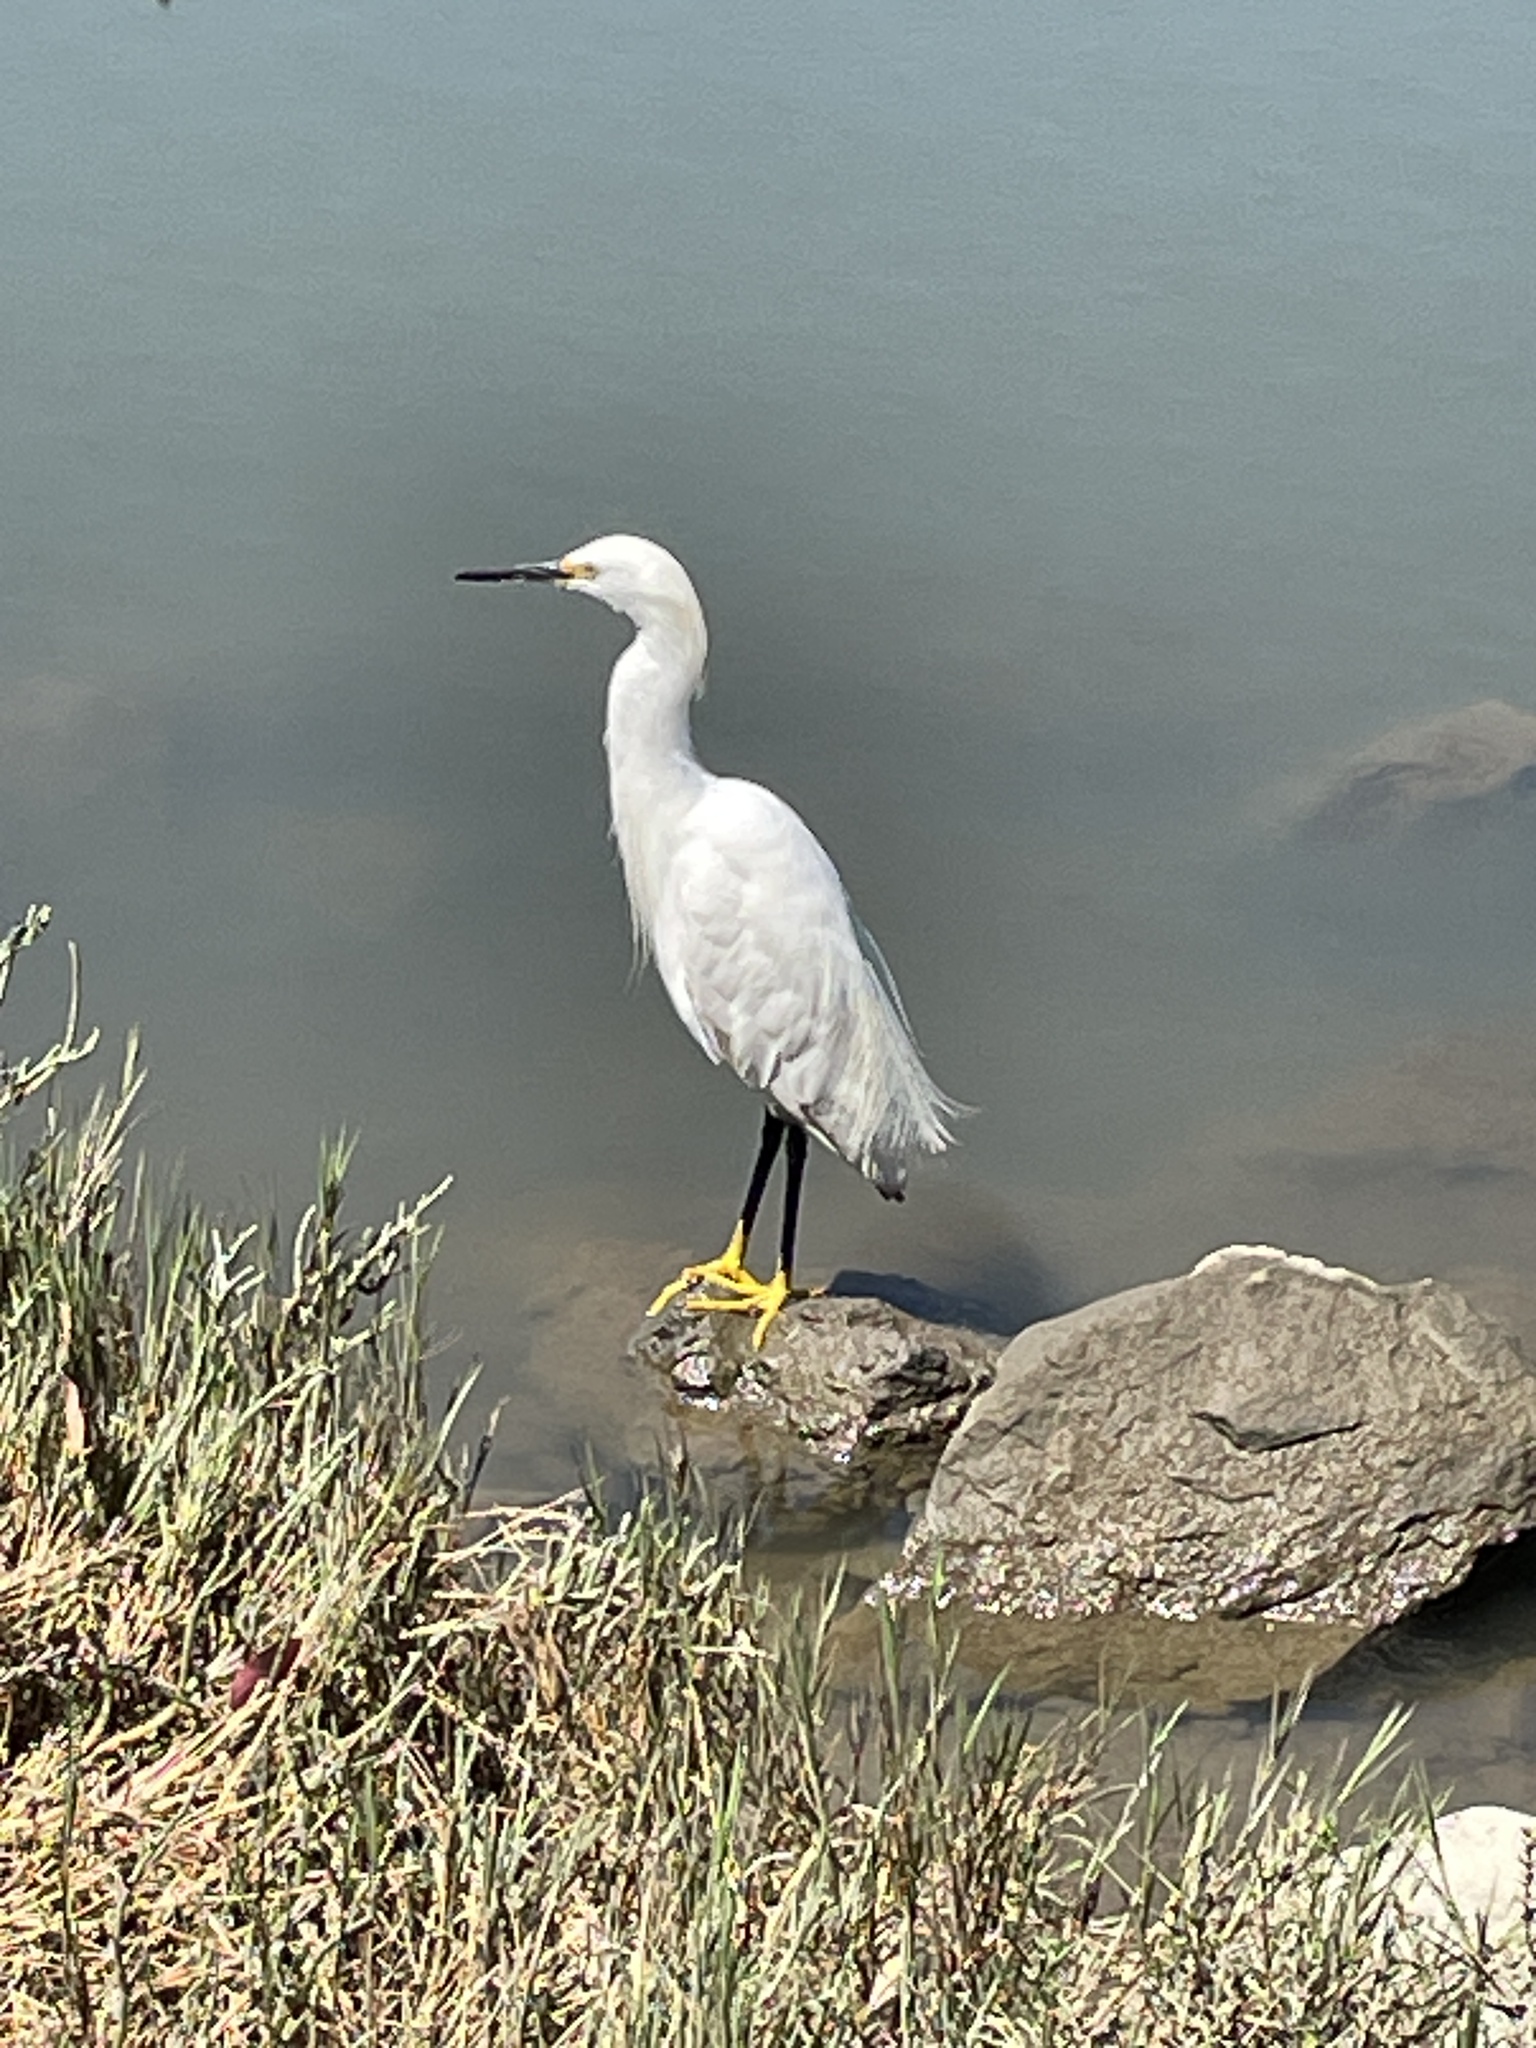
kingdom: Animalia
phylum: Chordata
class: Aves
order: Pelecaniformes
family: Ardeidae
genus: Egretta
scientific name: Egretta thula
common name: Snowy egret
